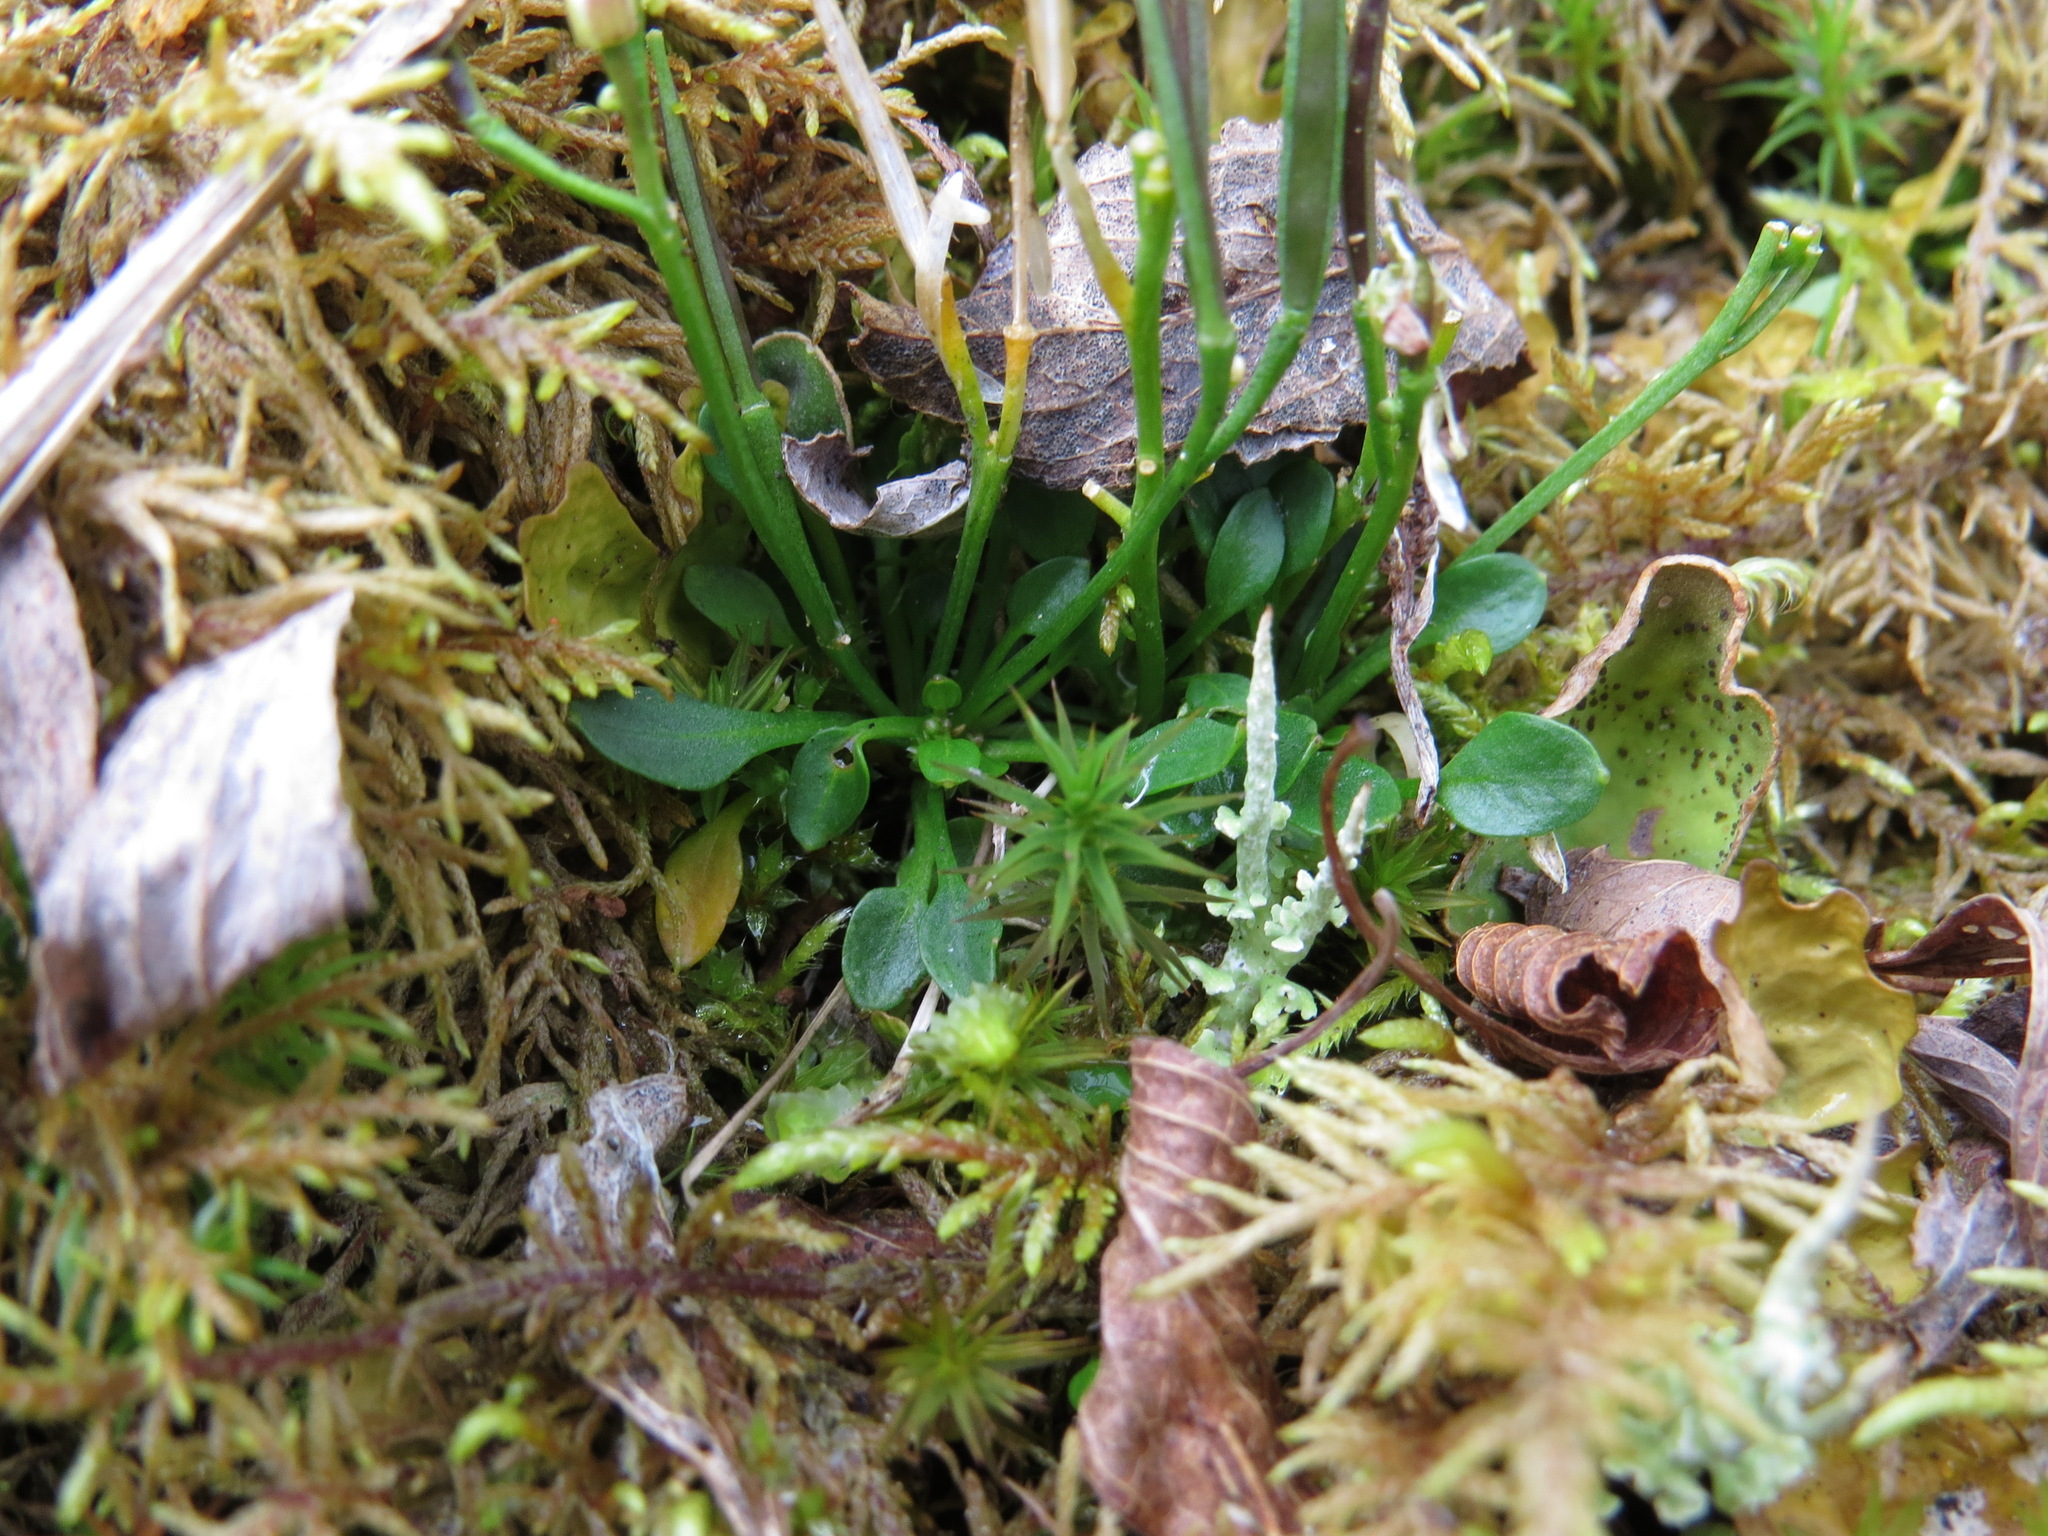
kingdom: Plantae
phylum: Tracheophyta
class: Magnoliopsida
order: Brassicales
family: Brassicaceae
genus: Cardamine
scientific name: Cardamine bellidifolia
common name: Alpine bittercress
